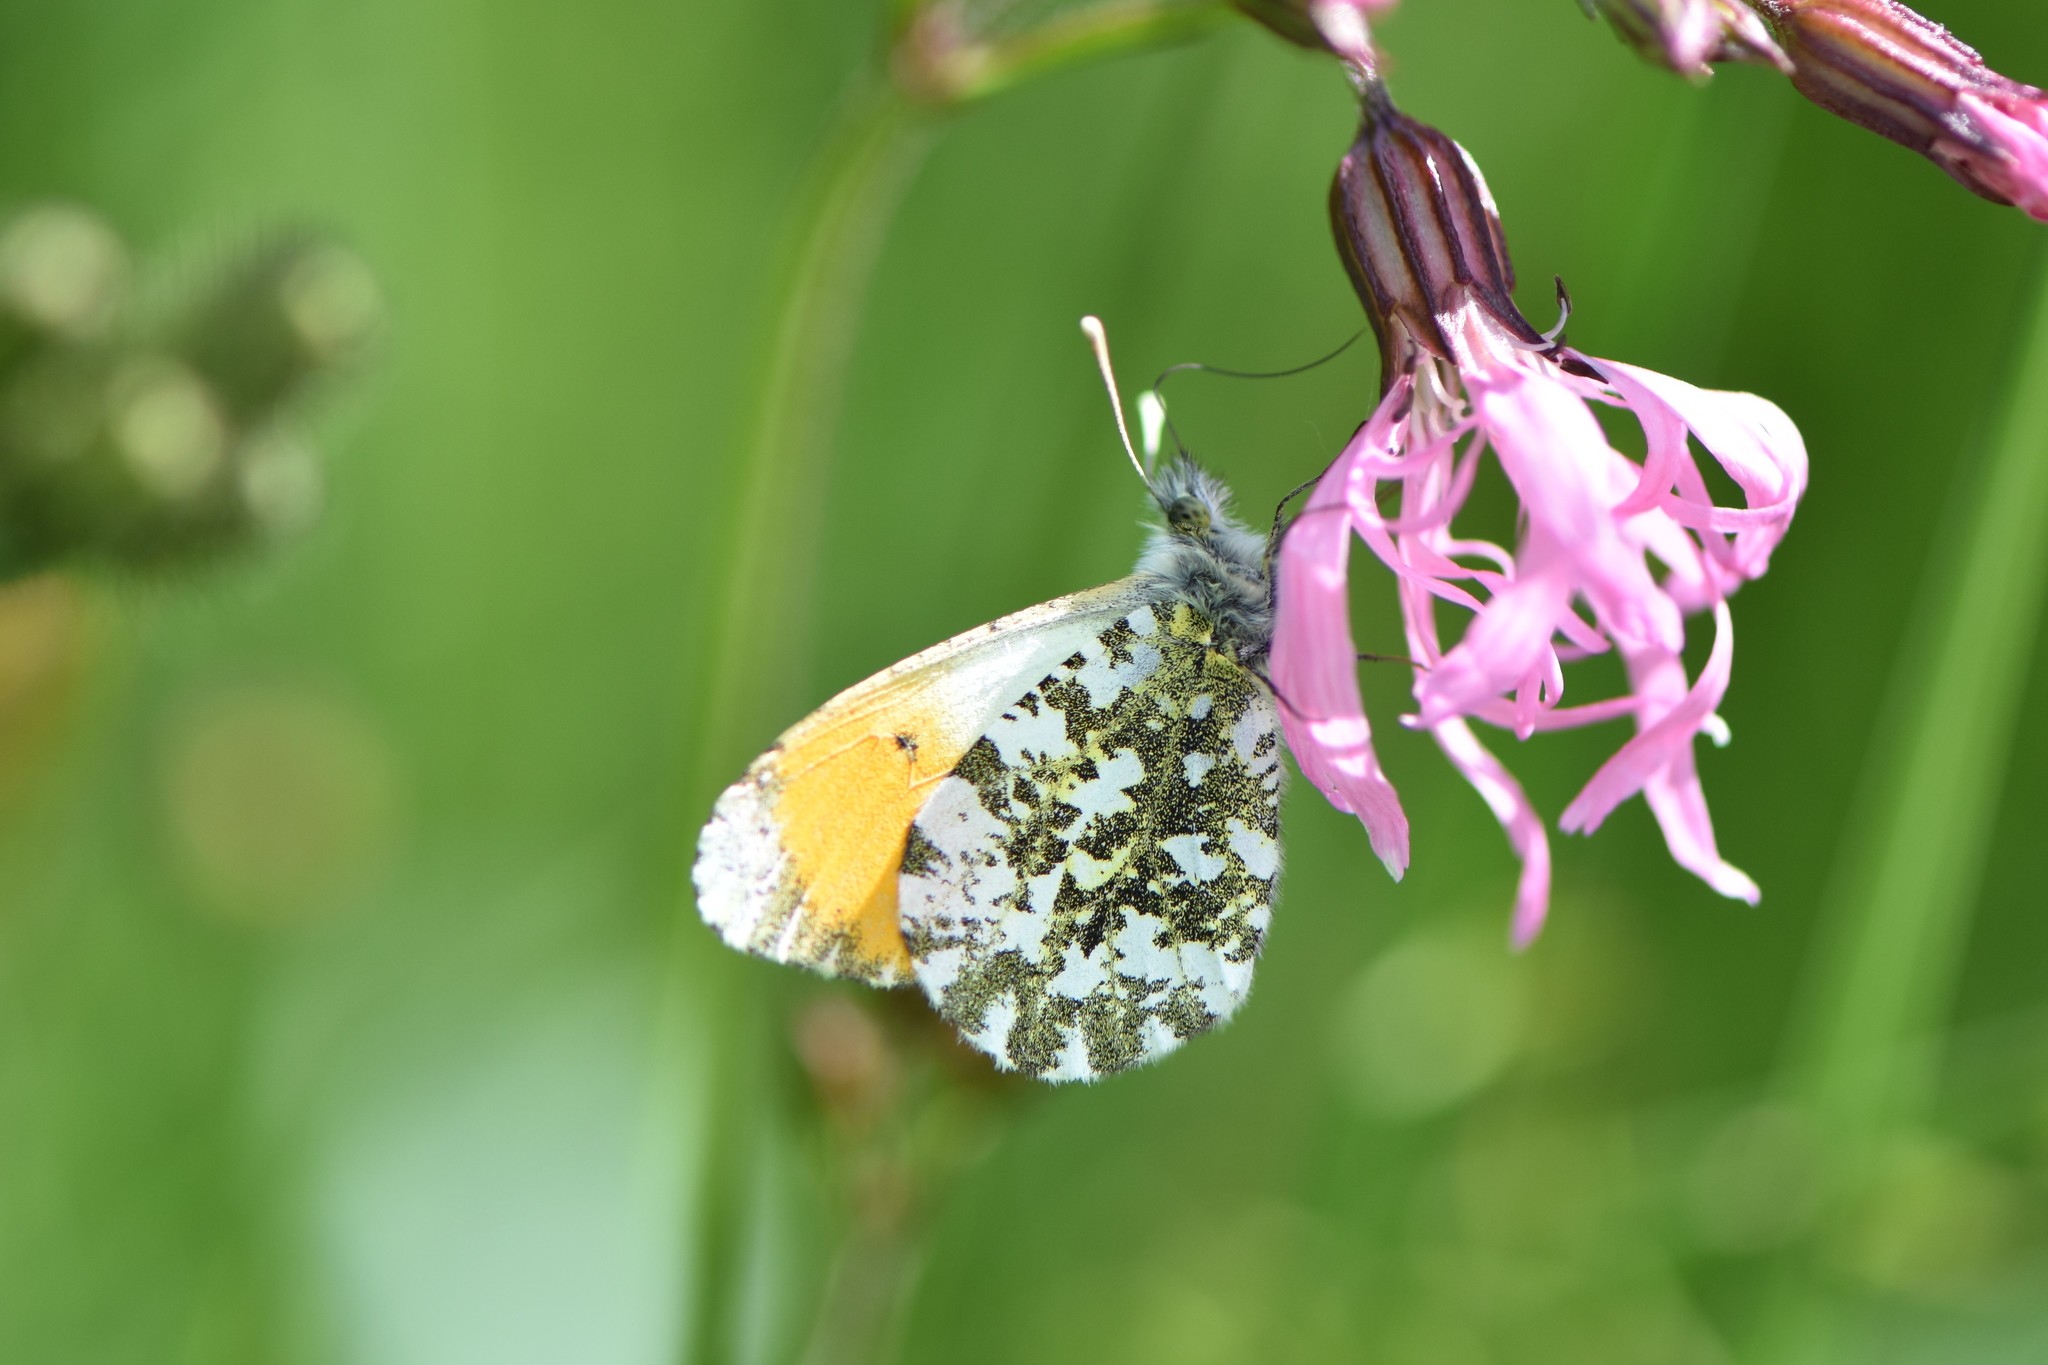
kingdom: Animalia
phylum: Arthropoda
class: Insecta
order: Lepidoptera
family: Pieridae
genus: Anthocharis
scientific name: Anthocharis cardamines
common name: Orange-tip
